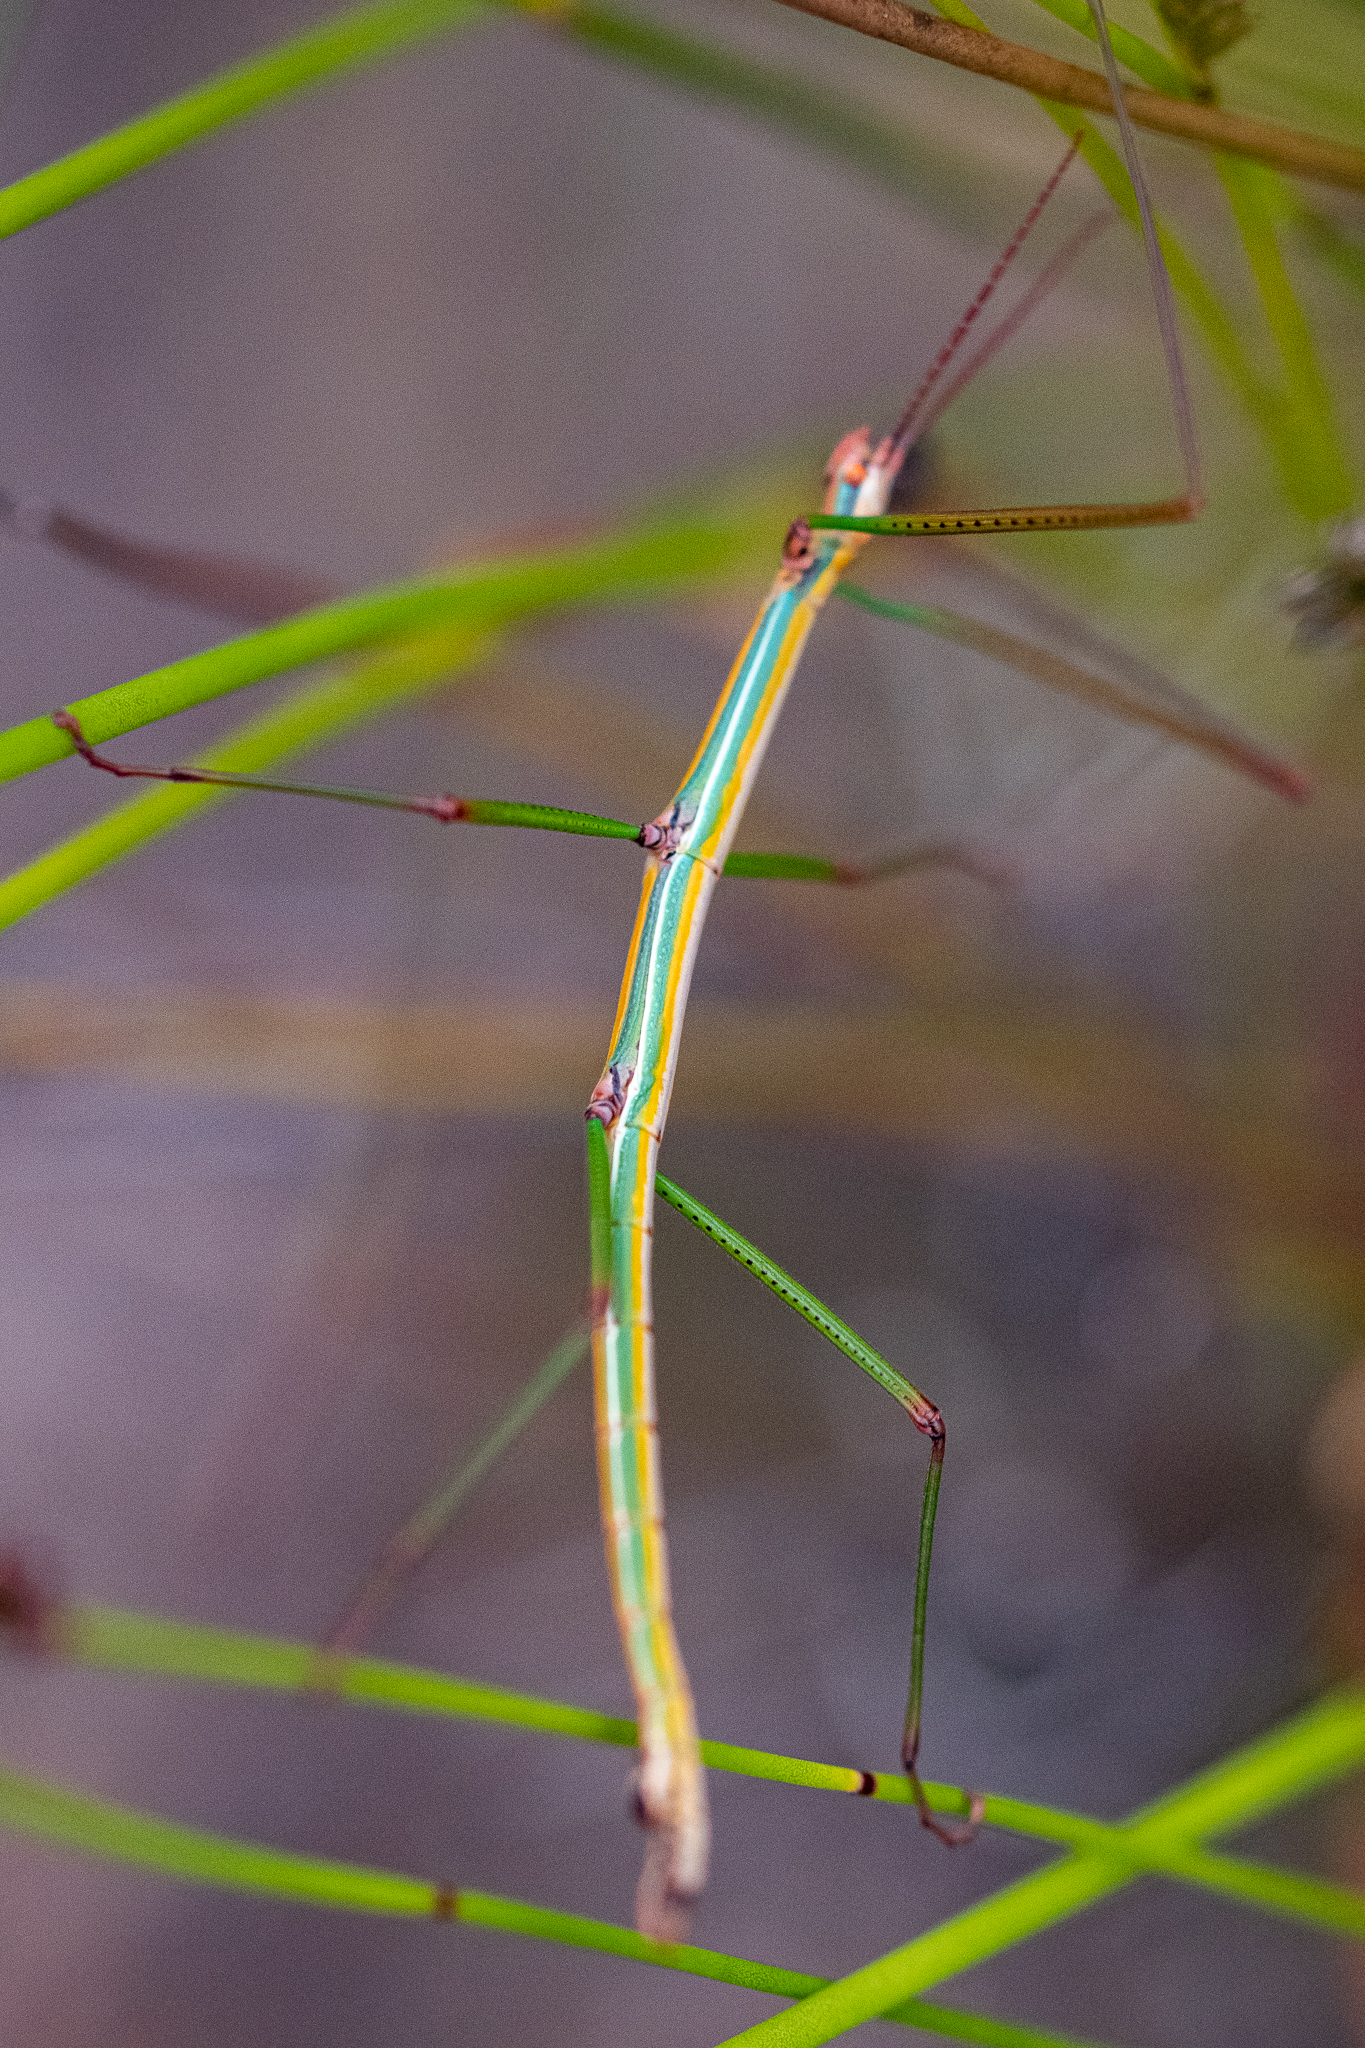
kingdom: Animalia
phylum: Arthropoda
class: Insecta
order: Phasmida
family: Bacillidae
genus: Macynia
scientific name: Macynia labiata
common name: Thunberg's stick insect
